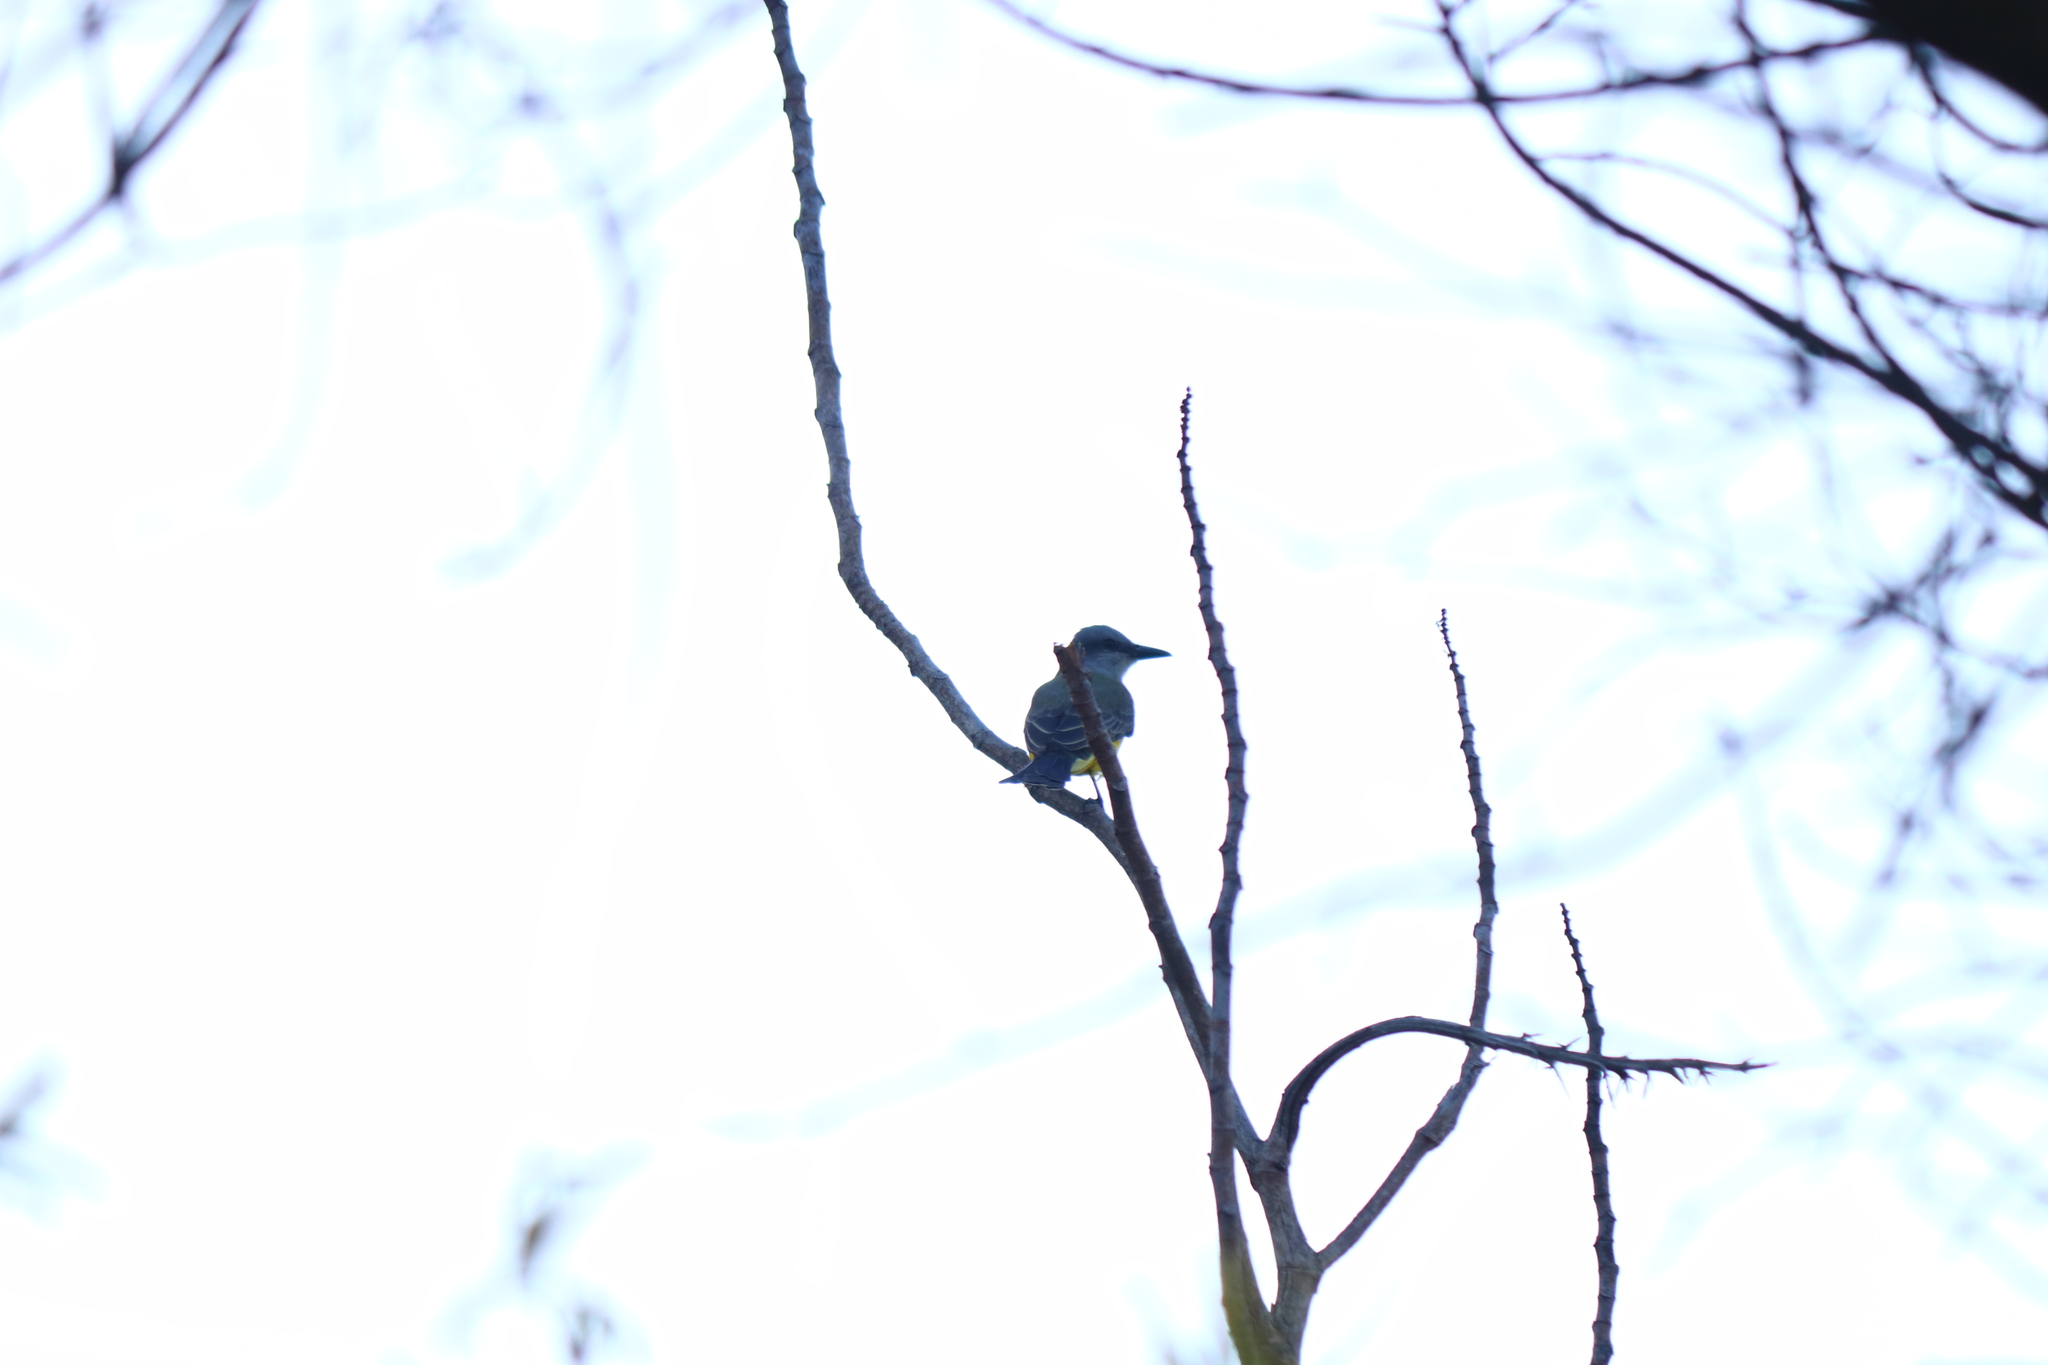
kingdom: Animalia
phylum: Chordata
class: Aves
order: Passeriformes
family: Tyrannidae
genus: Tyrannus
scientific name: Tyrannus melancholicus
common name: Tropical kingbird
